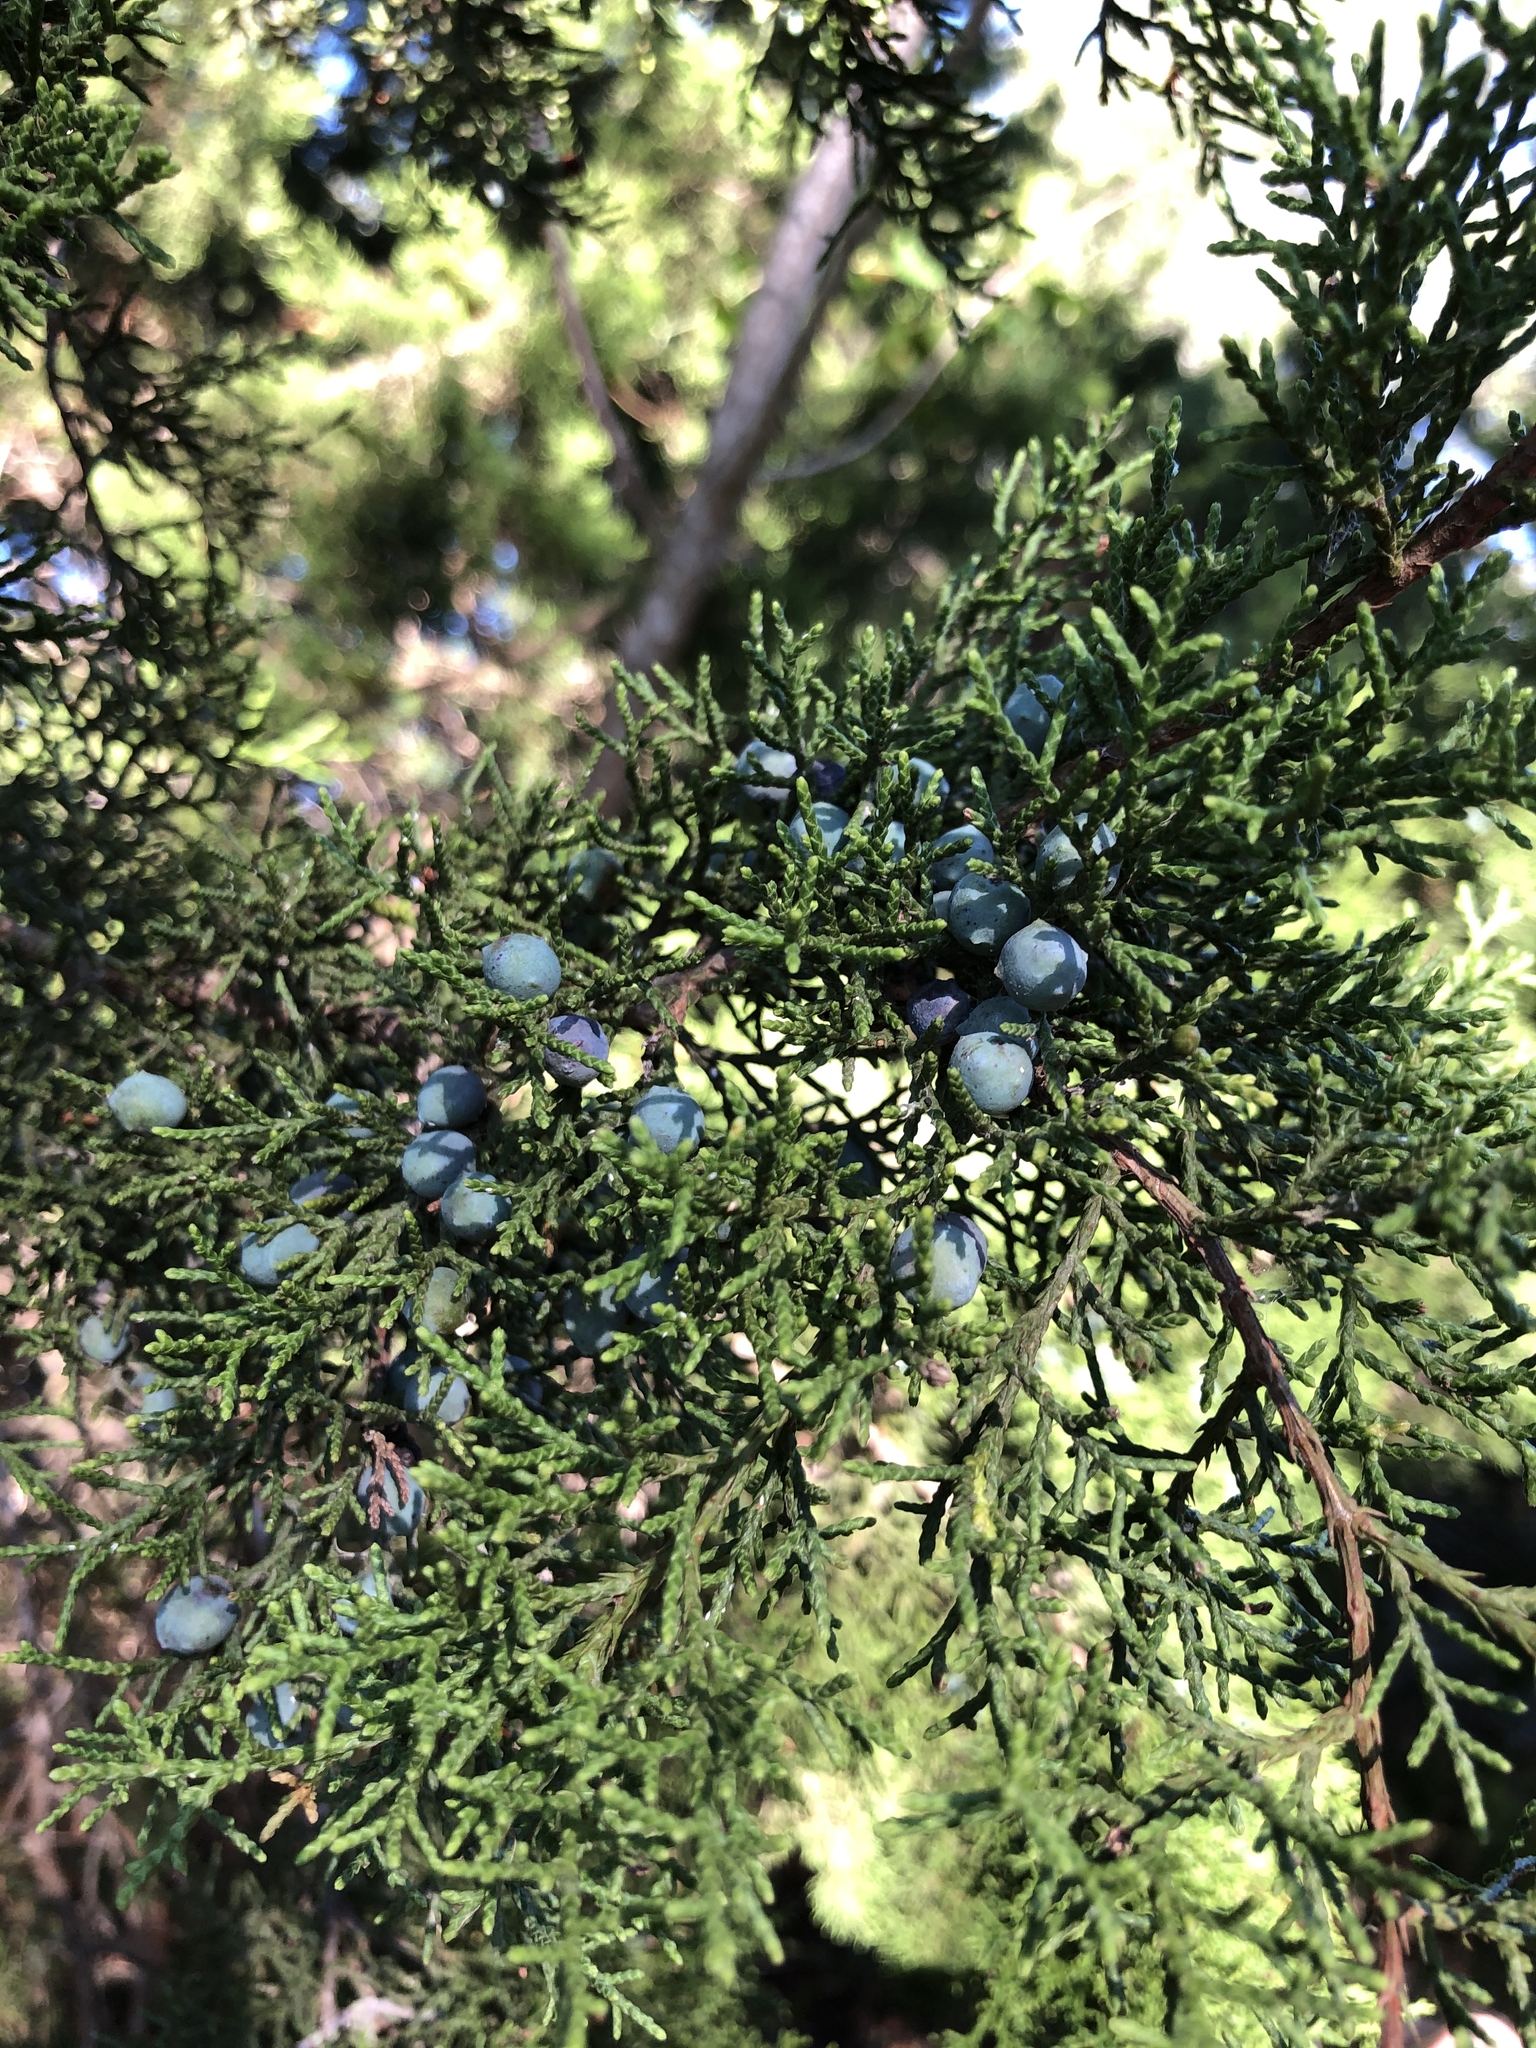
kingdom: Plantae
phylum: Tracheophyta
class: Pinopsida
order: Pinales
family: Cupressaceae
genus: Juniperus
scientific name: Juniperus ashei
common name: Mexican juniper
